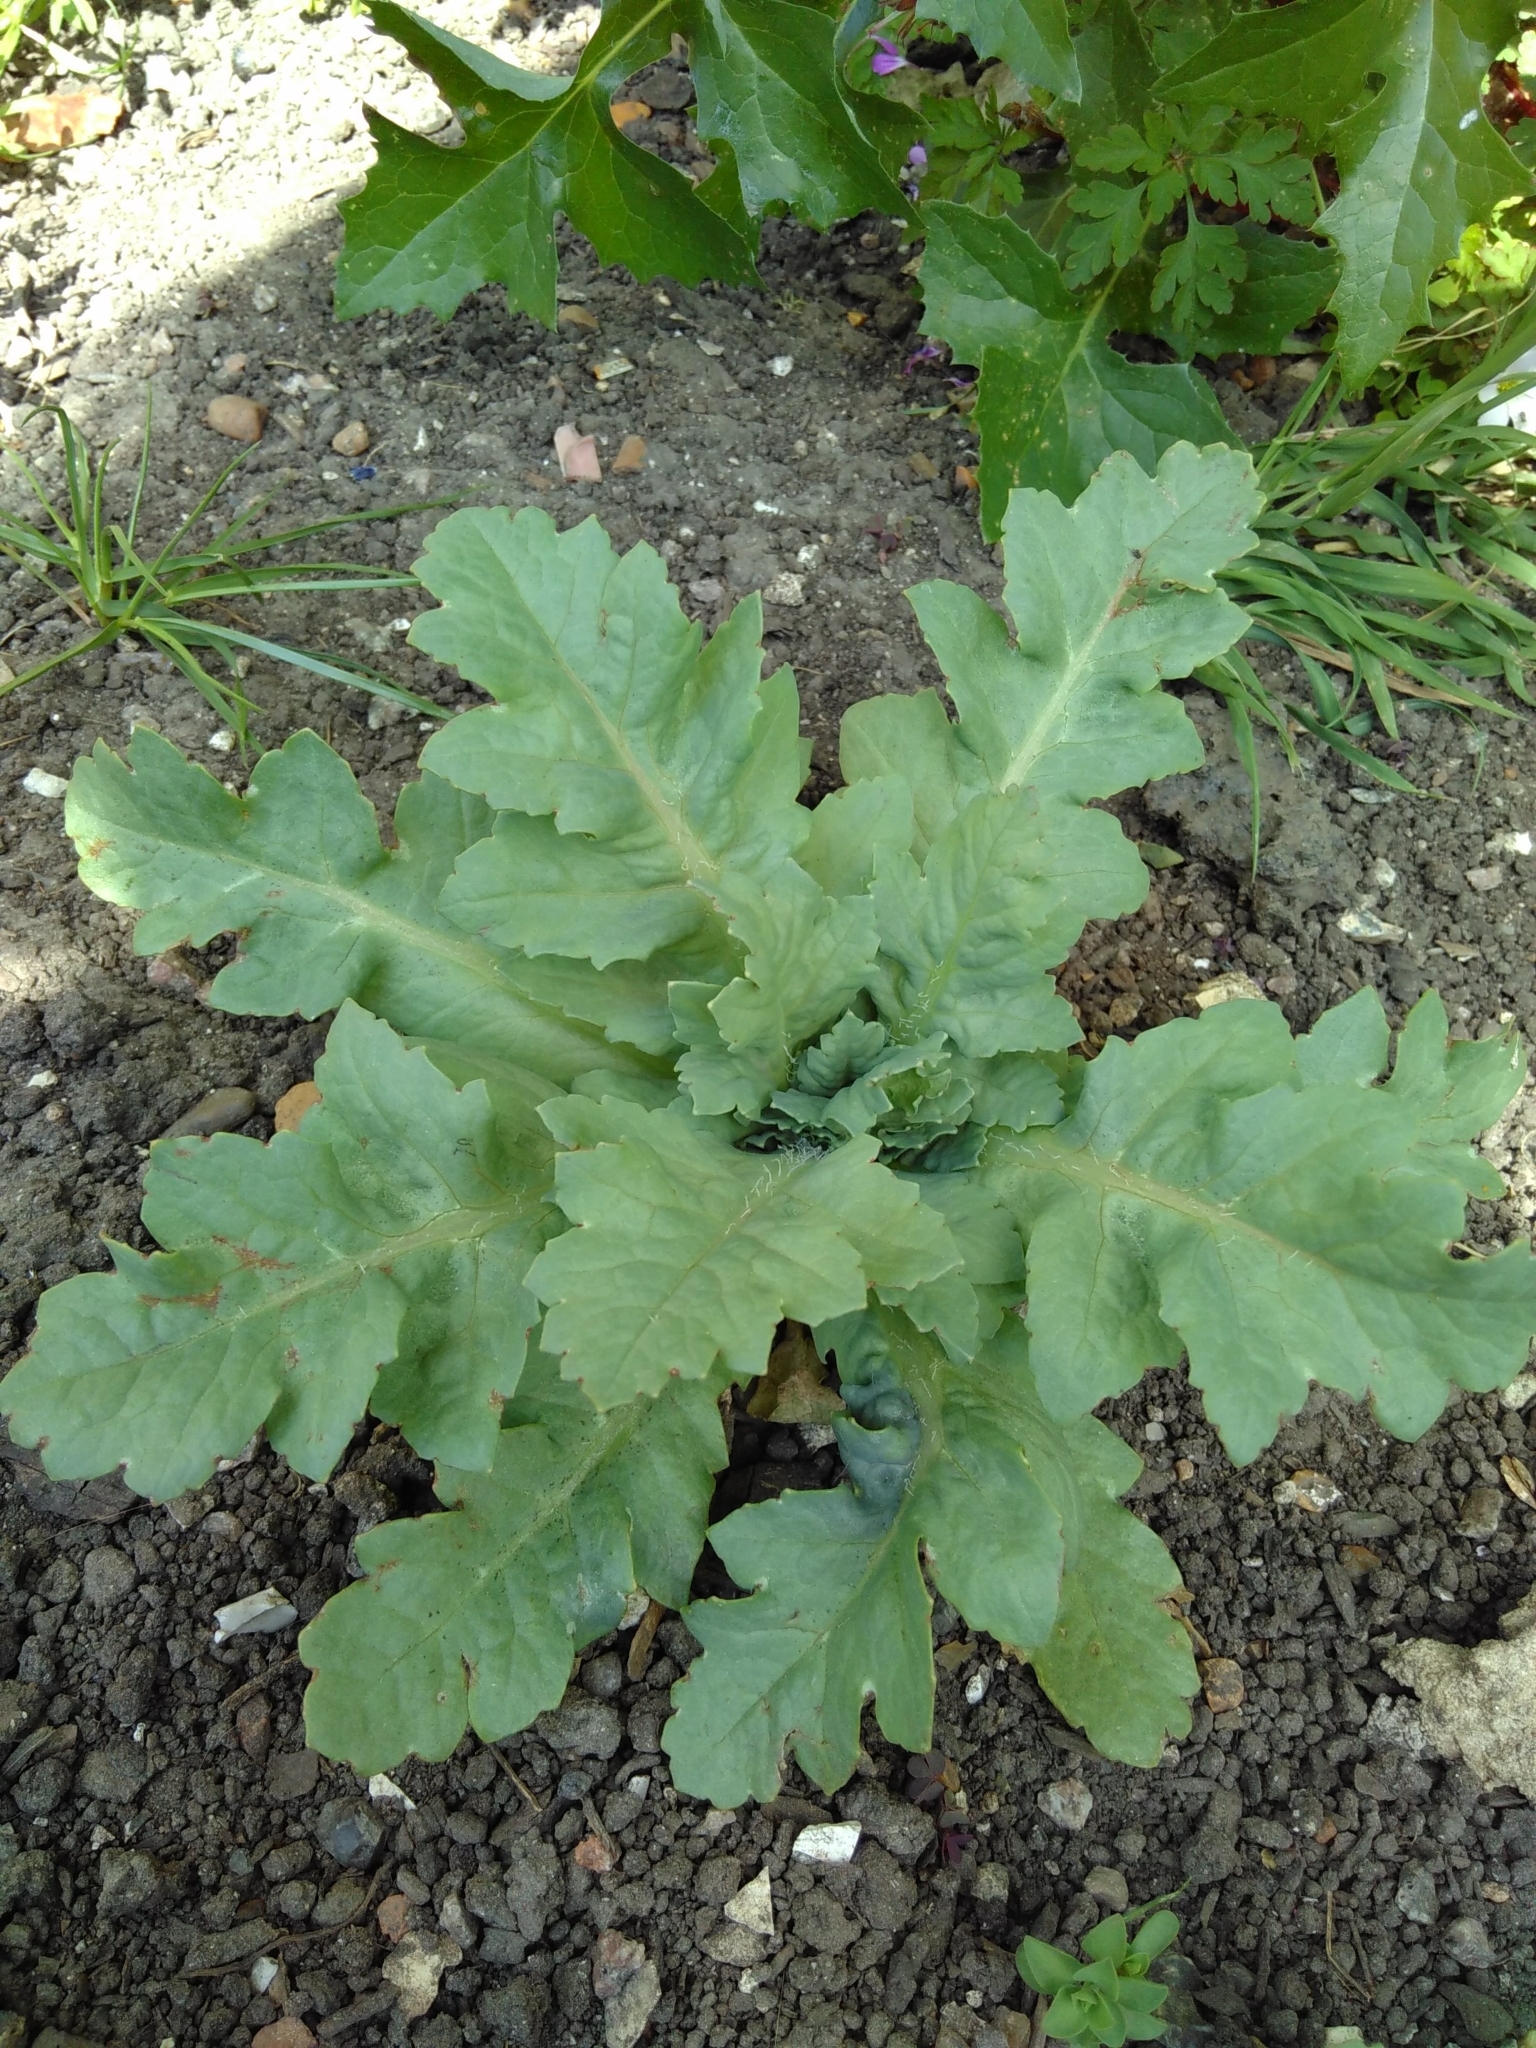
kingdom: Plantae
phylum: Tracheophyta
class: Magnoliopsida
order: Ranunculales
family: Papaveraceae
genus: Papaver
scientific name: Papaver somniferum
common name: Opium poppy
